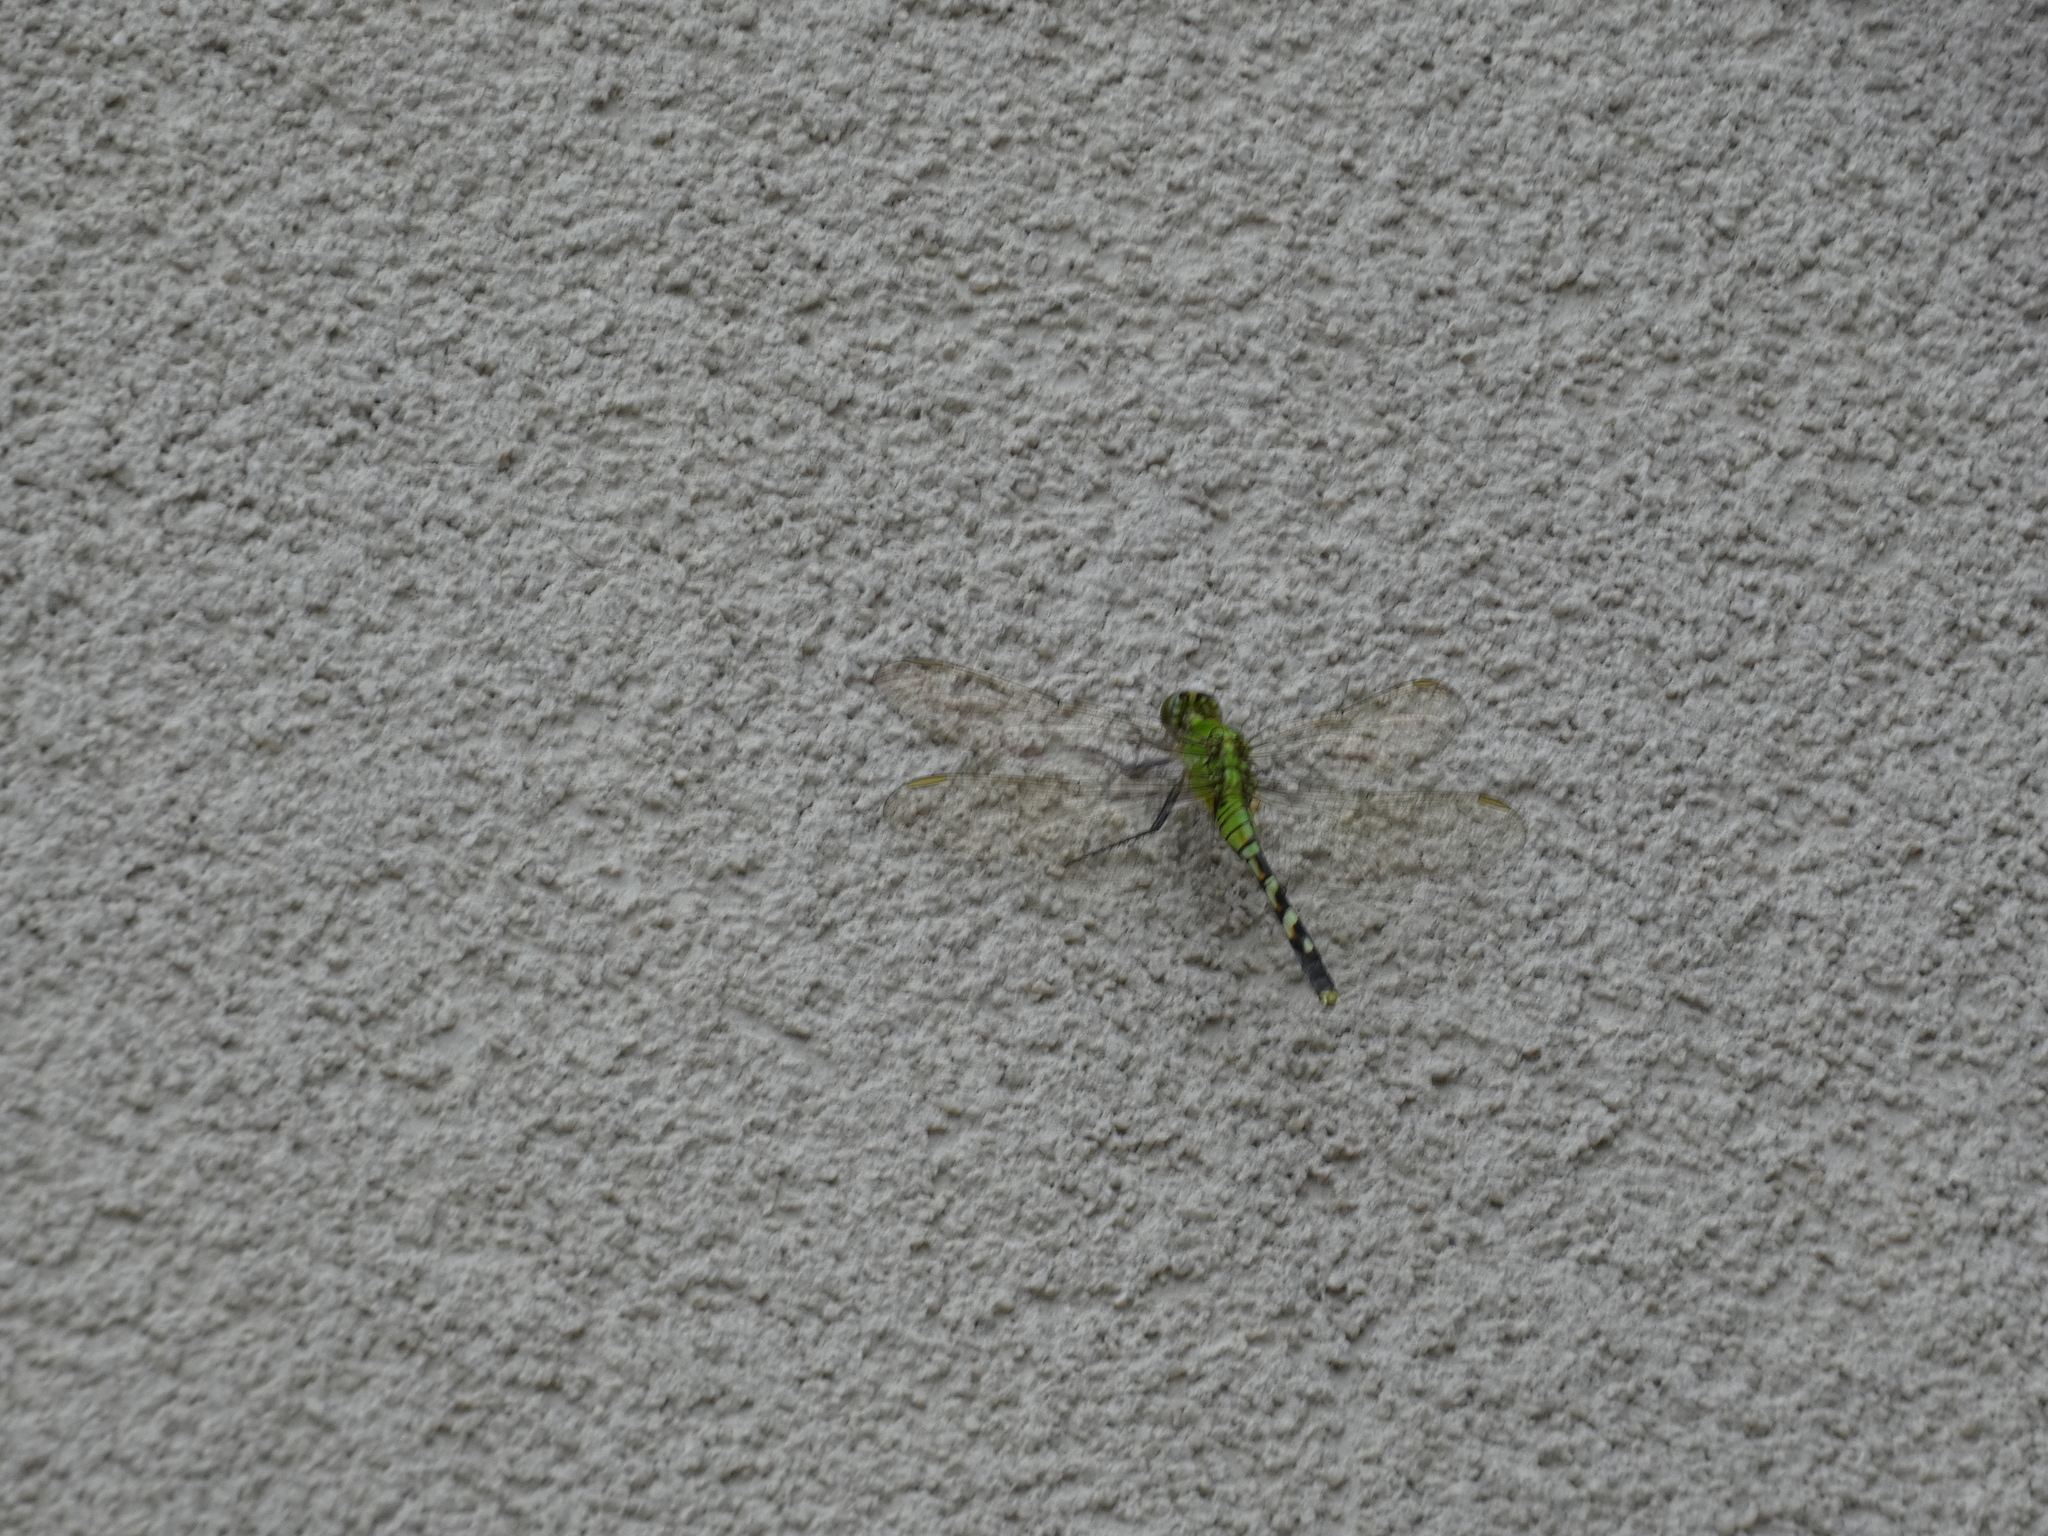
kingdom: Animalia
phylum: Arthropoda
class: Insecta
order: Odonata
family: Libellulidae
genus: Erythemis
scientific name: Erythemis simplicicollis
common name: Eastern pondhawk
